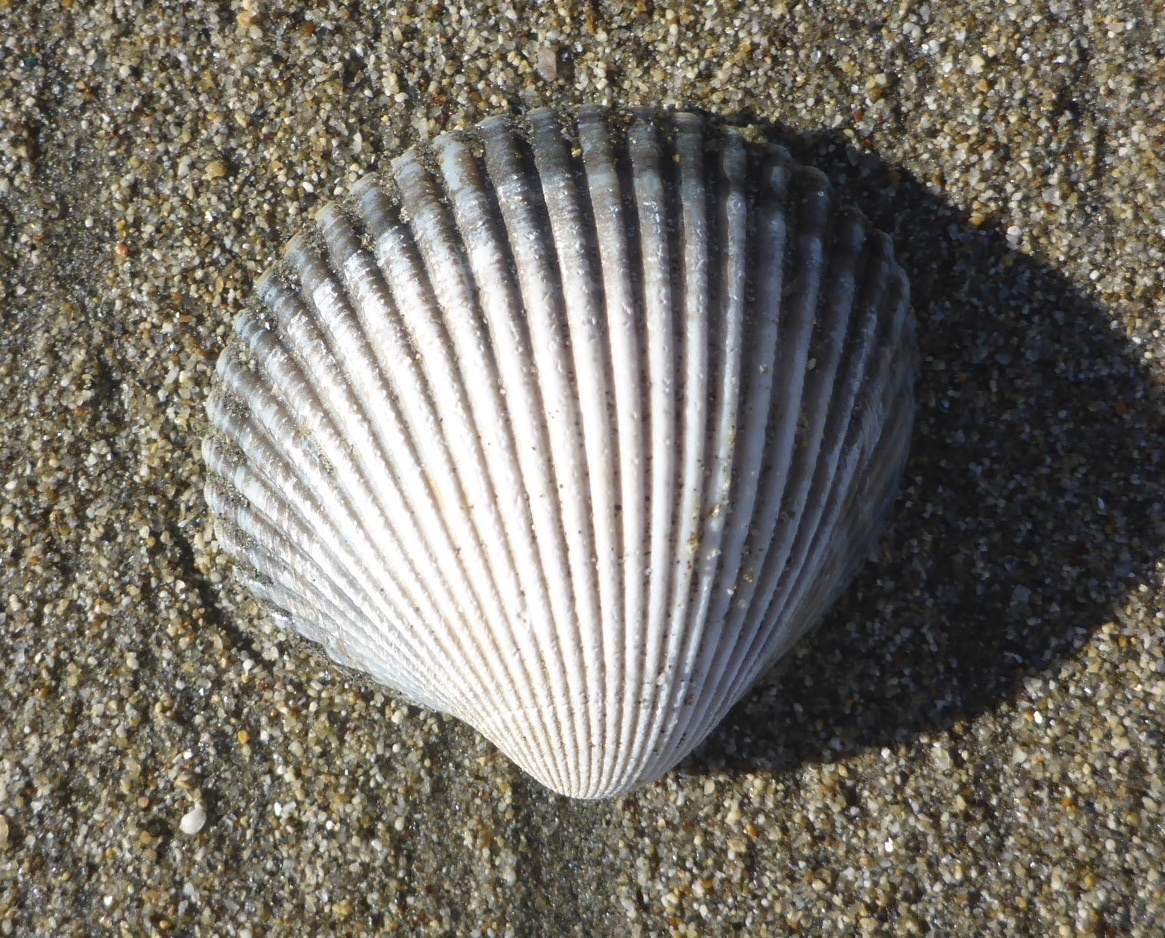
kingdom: Animalia
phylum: Mollusca
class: Bivalvia
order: Cardiida
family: Cardiidae
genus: Clinocardium
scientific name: Clinocardium nuttallii
